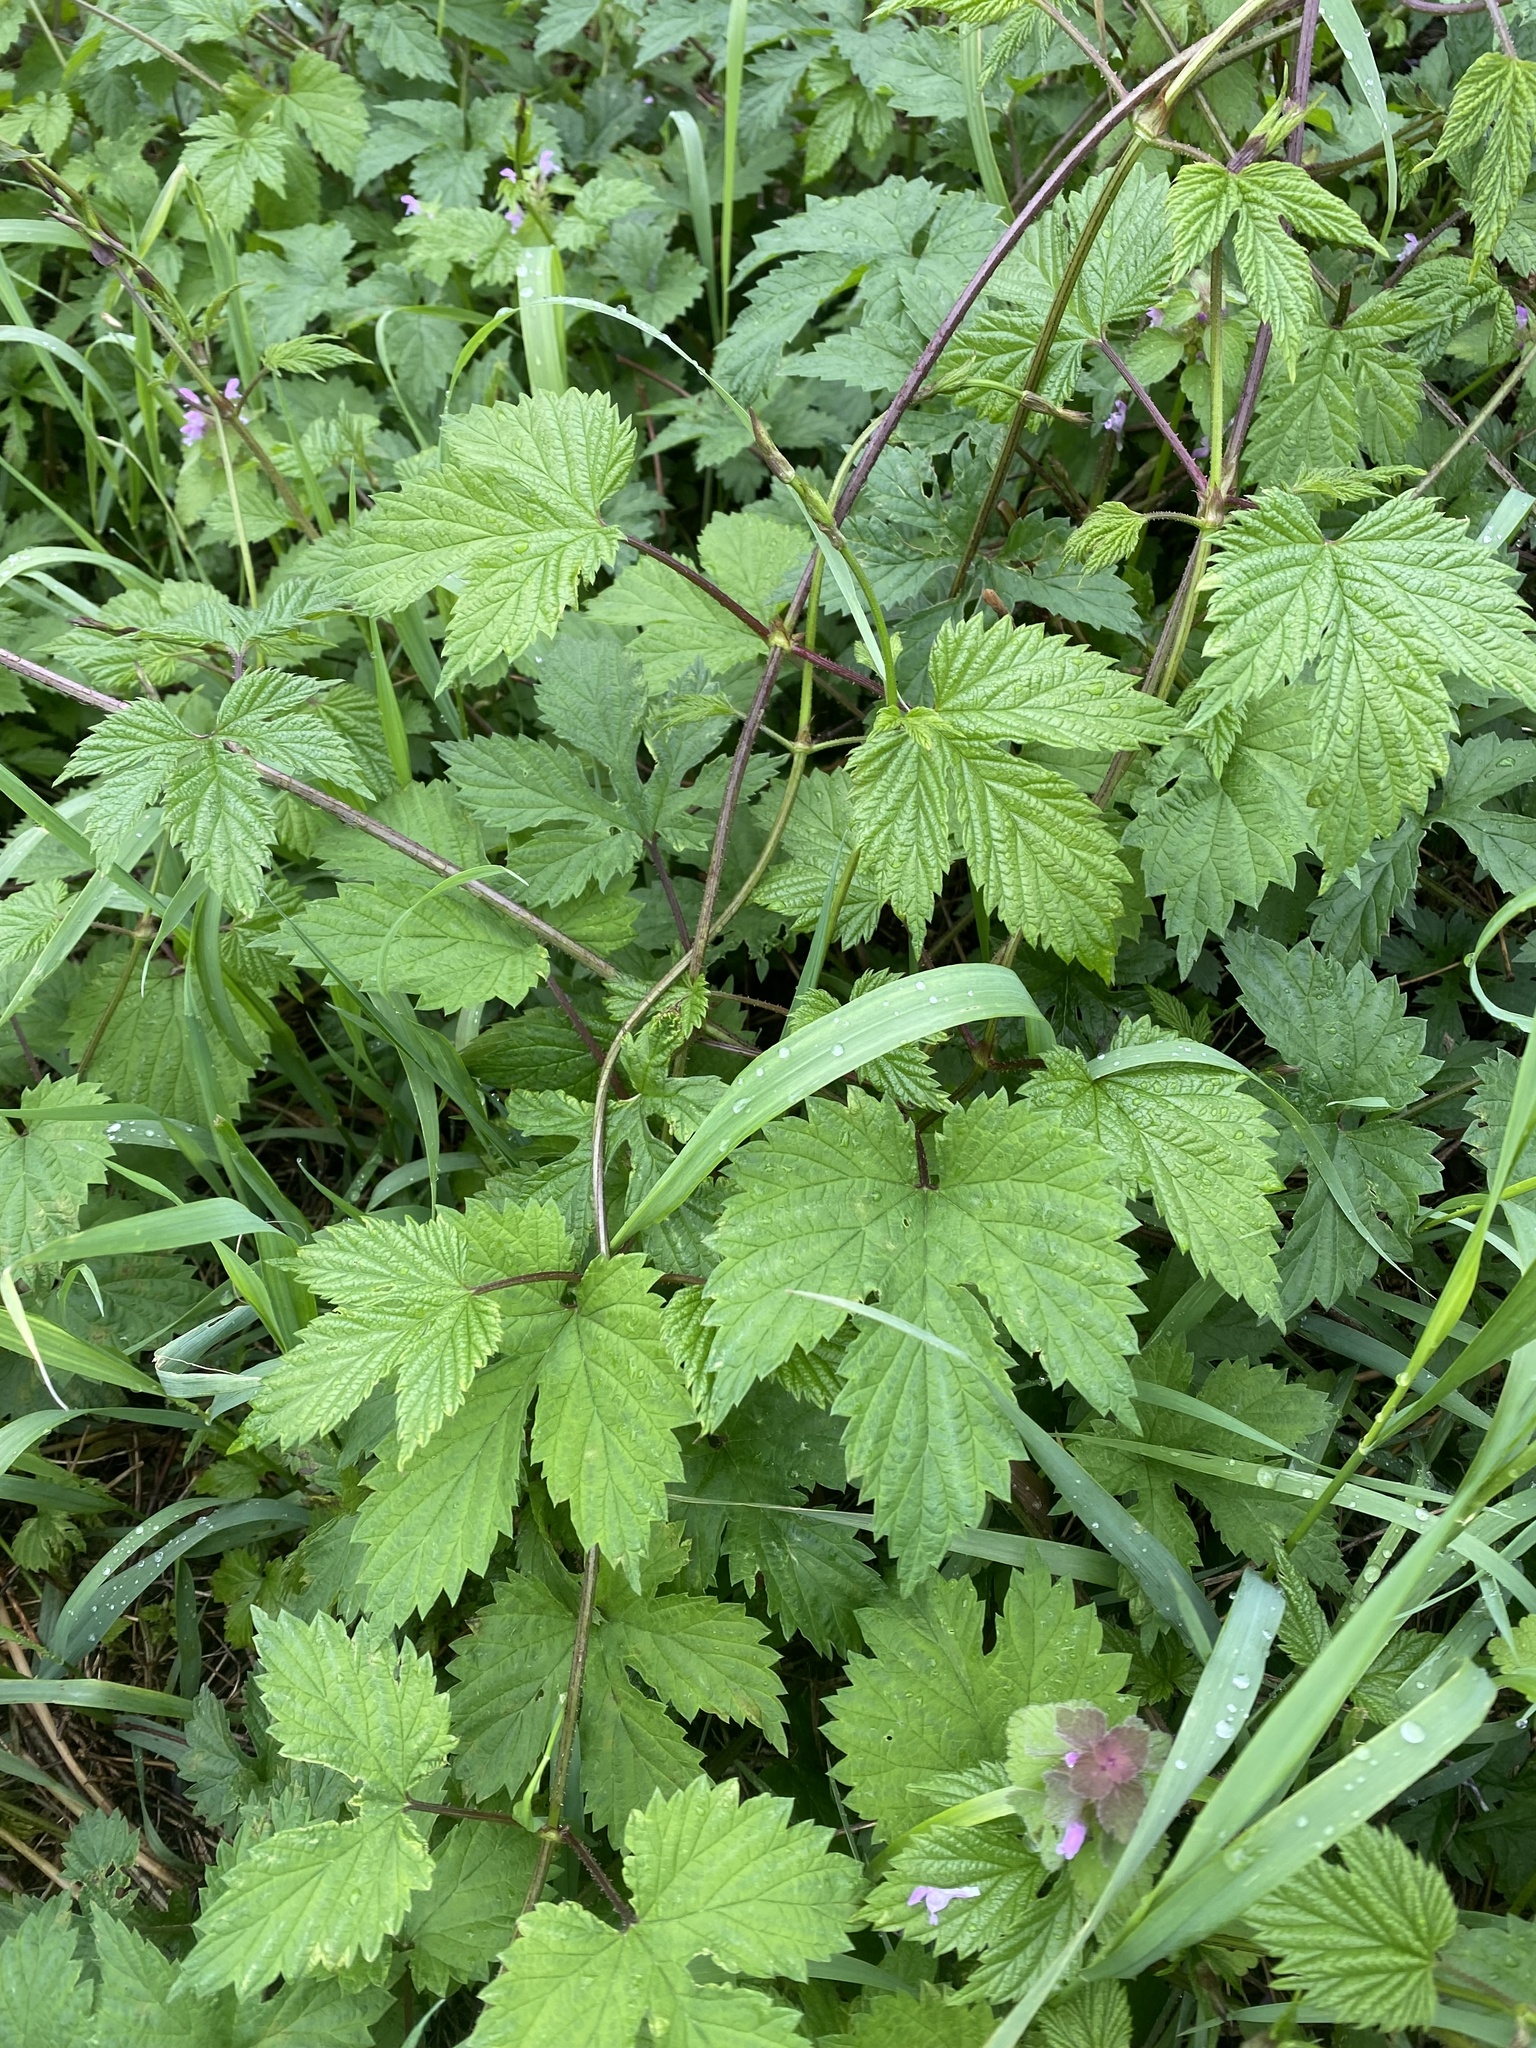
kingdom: Plantae
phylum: Tracheophyta
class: Magnoliopsida
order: Rosales
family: Cannabaceae
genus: Humulus
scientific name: Humulus lupulus
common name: Hop
